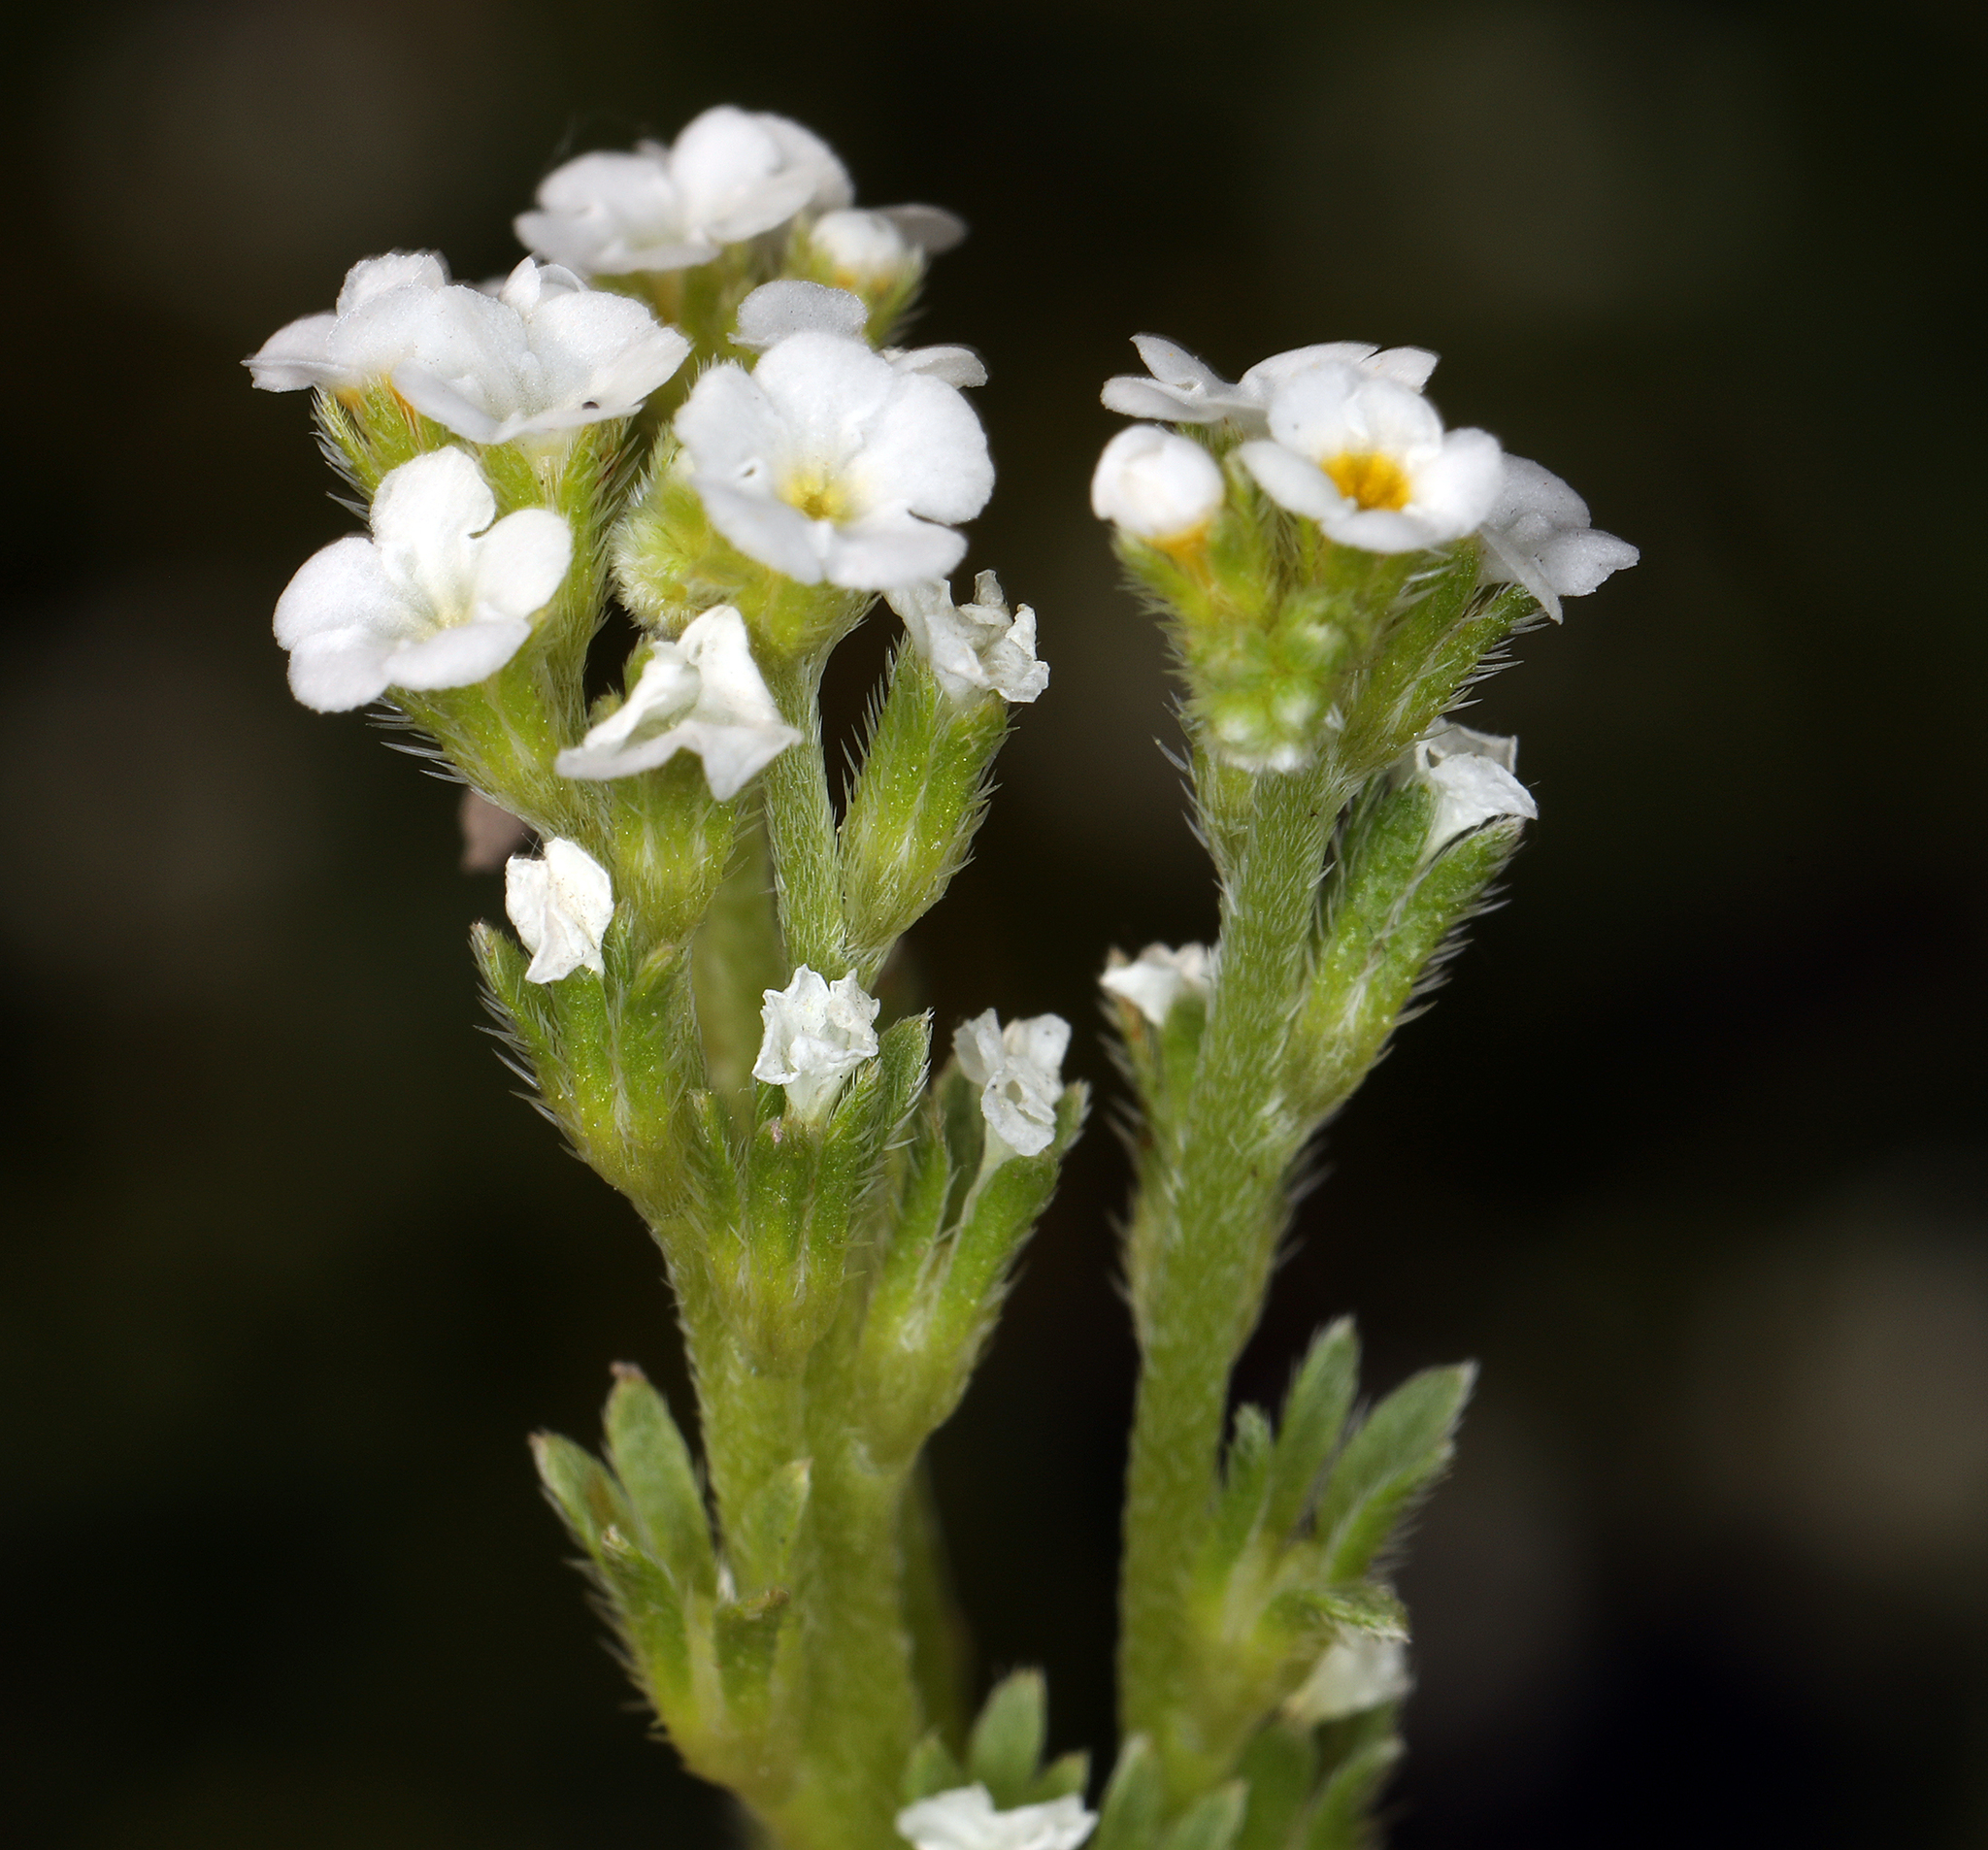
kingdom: Plantae
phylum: Tracheophyta
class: Magnoliopsida
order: Boraginales
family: Boraginaceae
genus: Plagiobothrys
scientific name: Plagiobothrys stipitatus
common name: Stipitate forget-me-not
